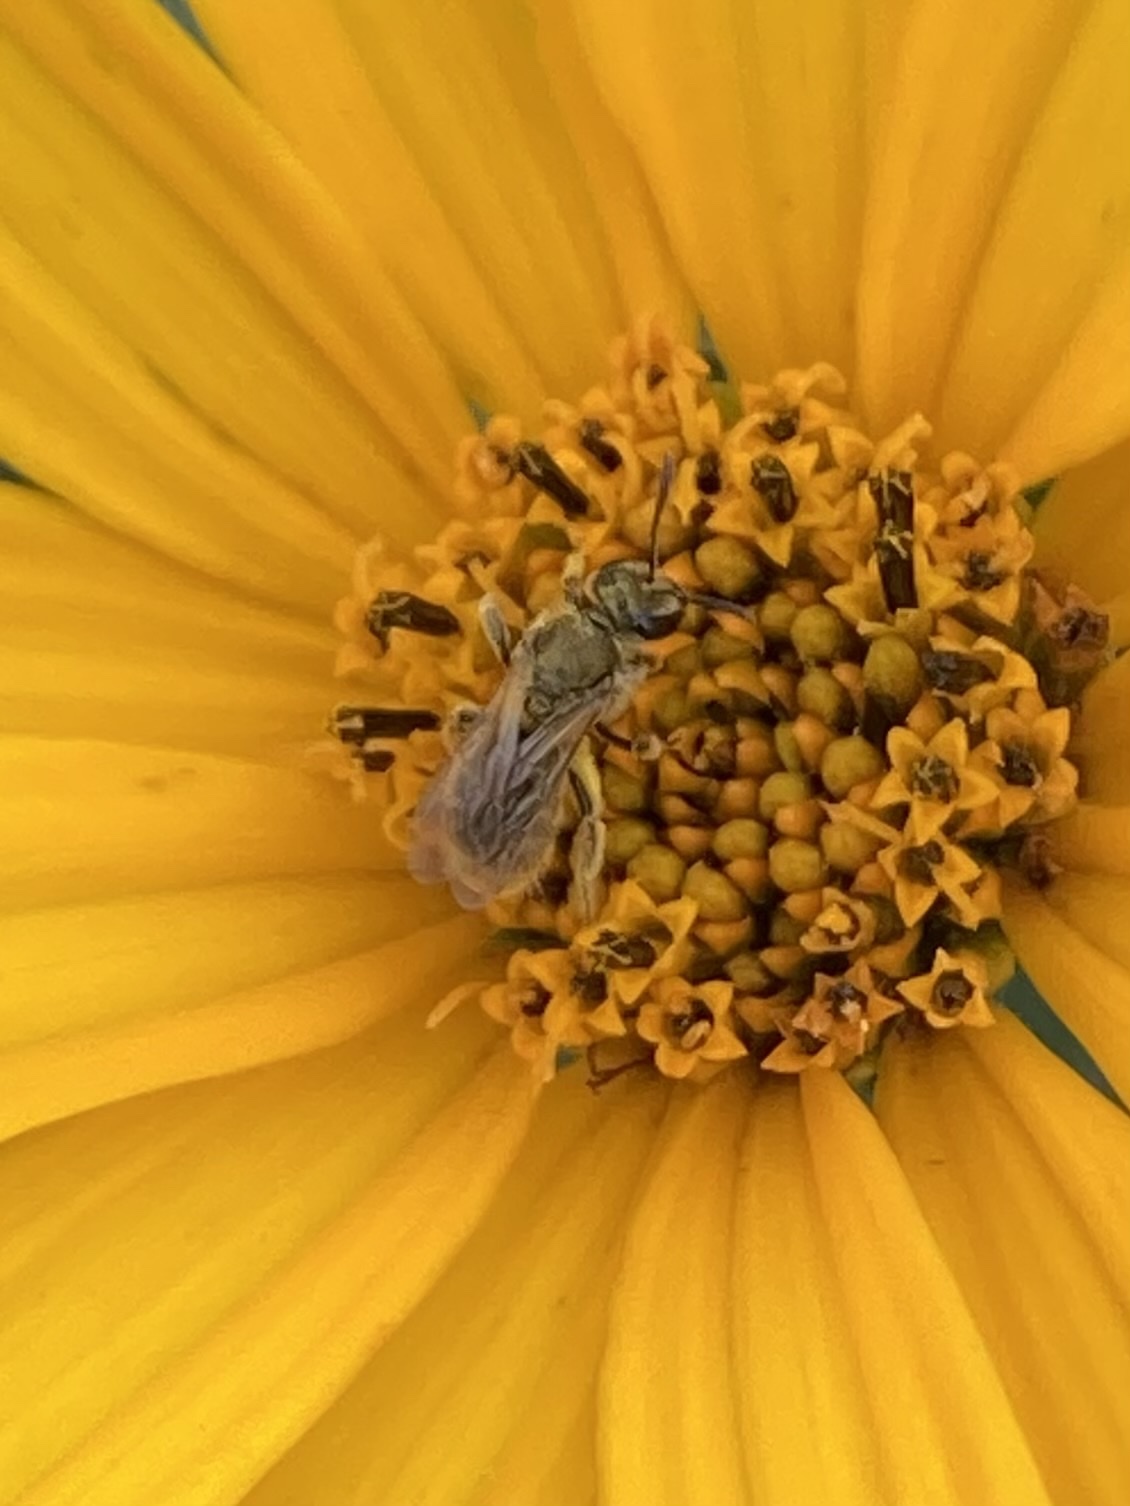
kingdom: Animalia
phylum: Arthropoda
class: Insecta
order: Hymenoptera
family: Halictidae
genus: Dialictus
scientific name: Dialictus
